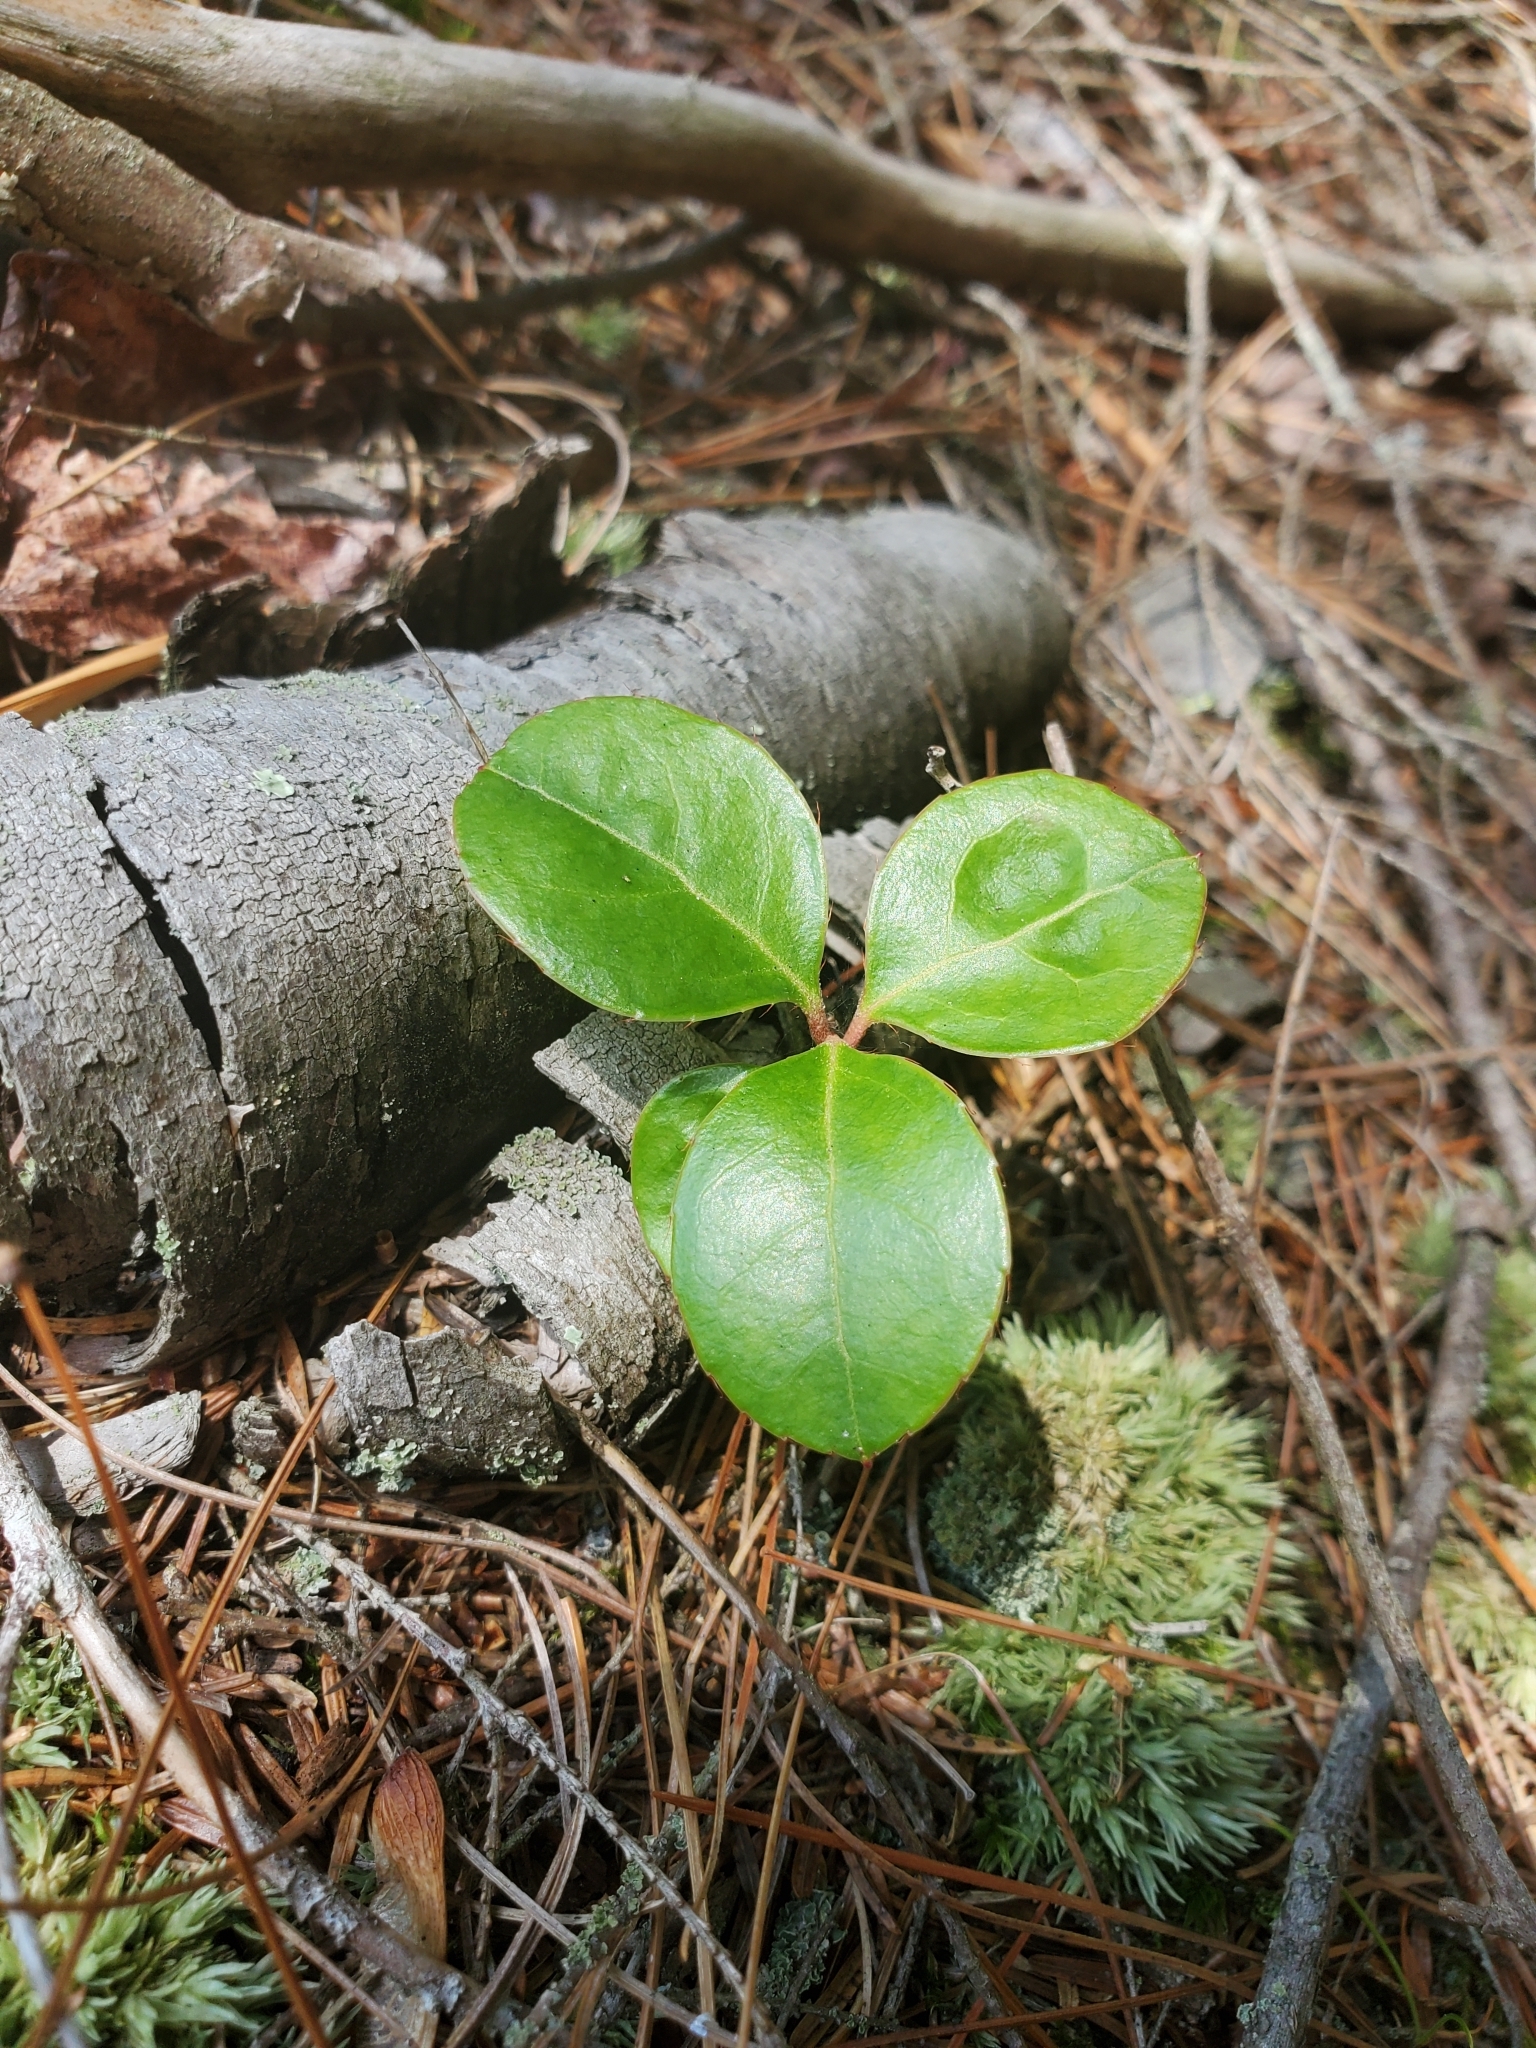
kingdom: Plantae
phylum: Tracheophyta
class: Magnoliopsida
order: Ericales
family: Ericaceae
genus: Gaultheria
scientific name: Gaultheria procumbens
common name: Checkerberry
